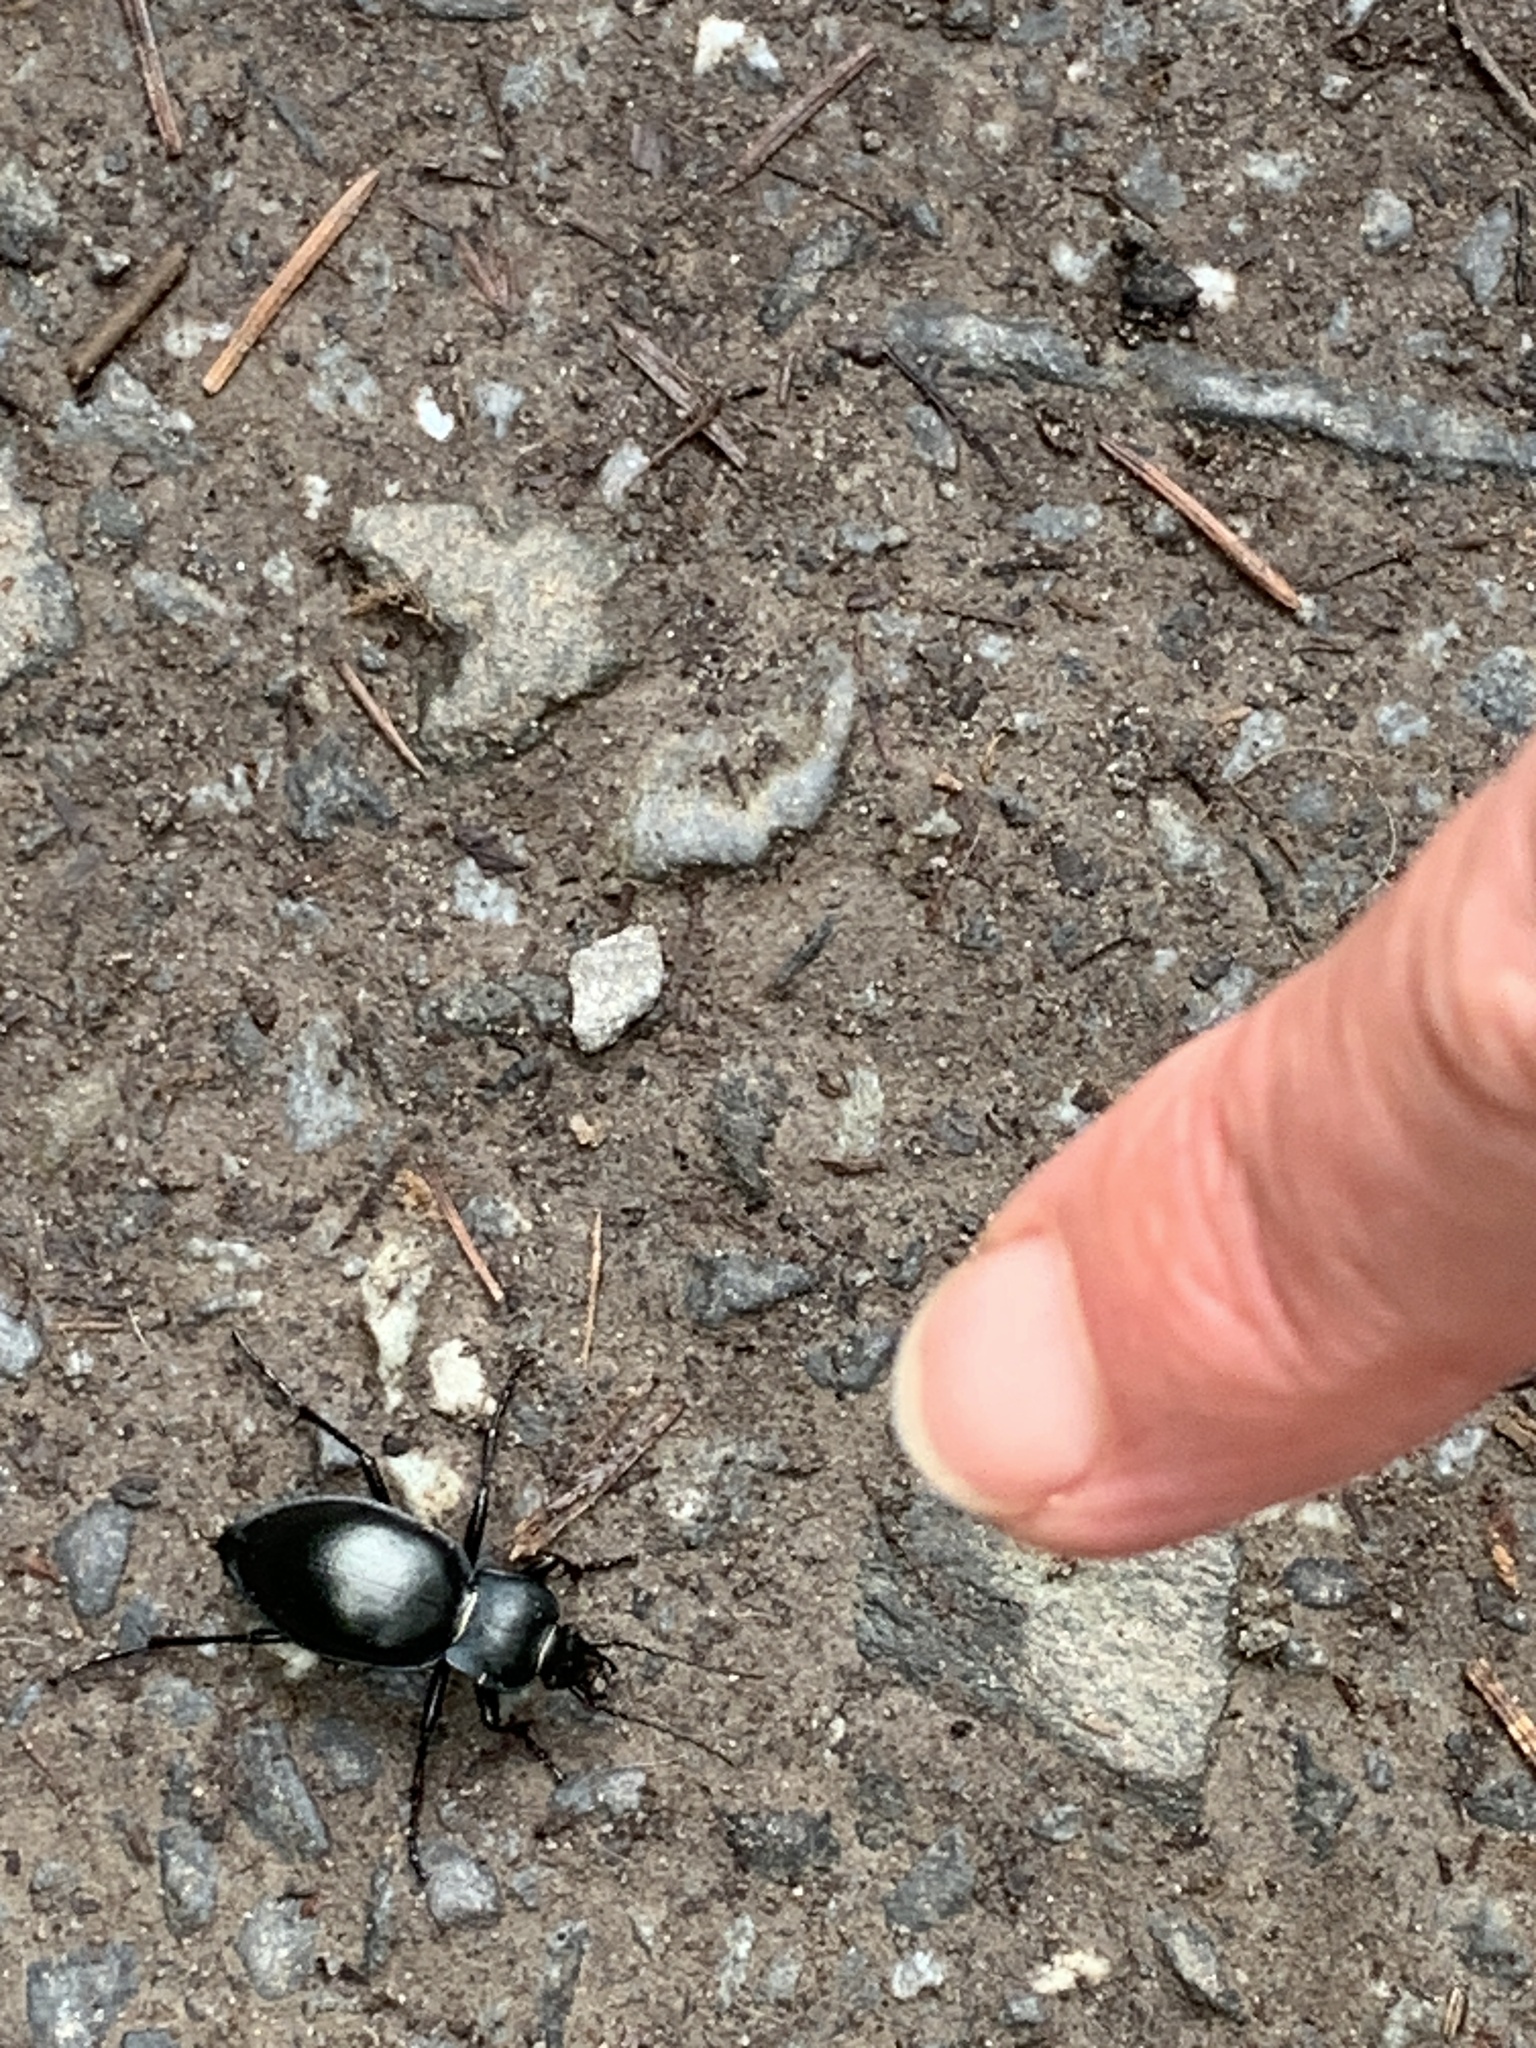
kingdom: Animalia
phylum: Arthropoda
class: Insecta
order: Coleoptera
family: Carabidae
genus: Carabus
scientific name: Carabus glabratus
